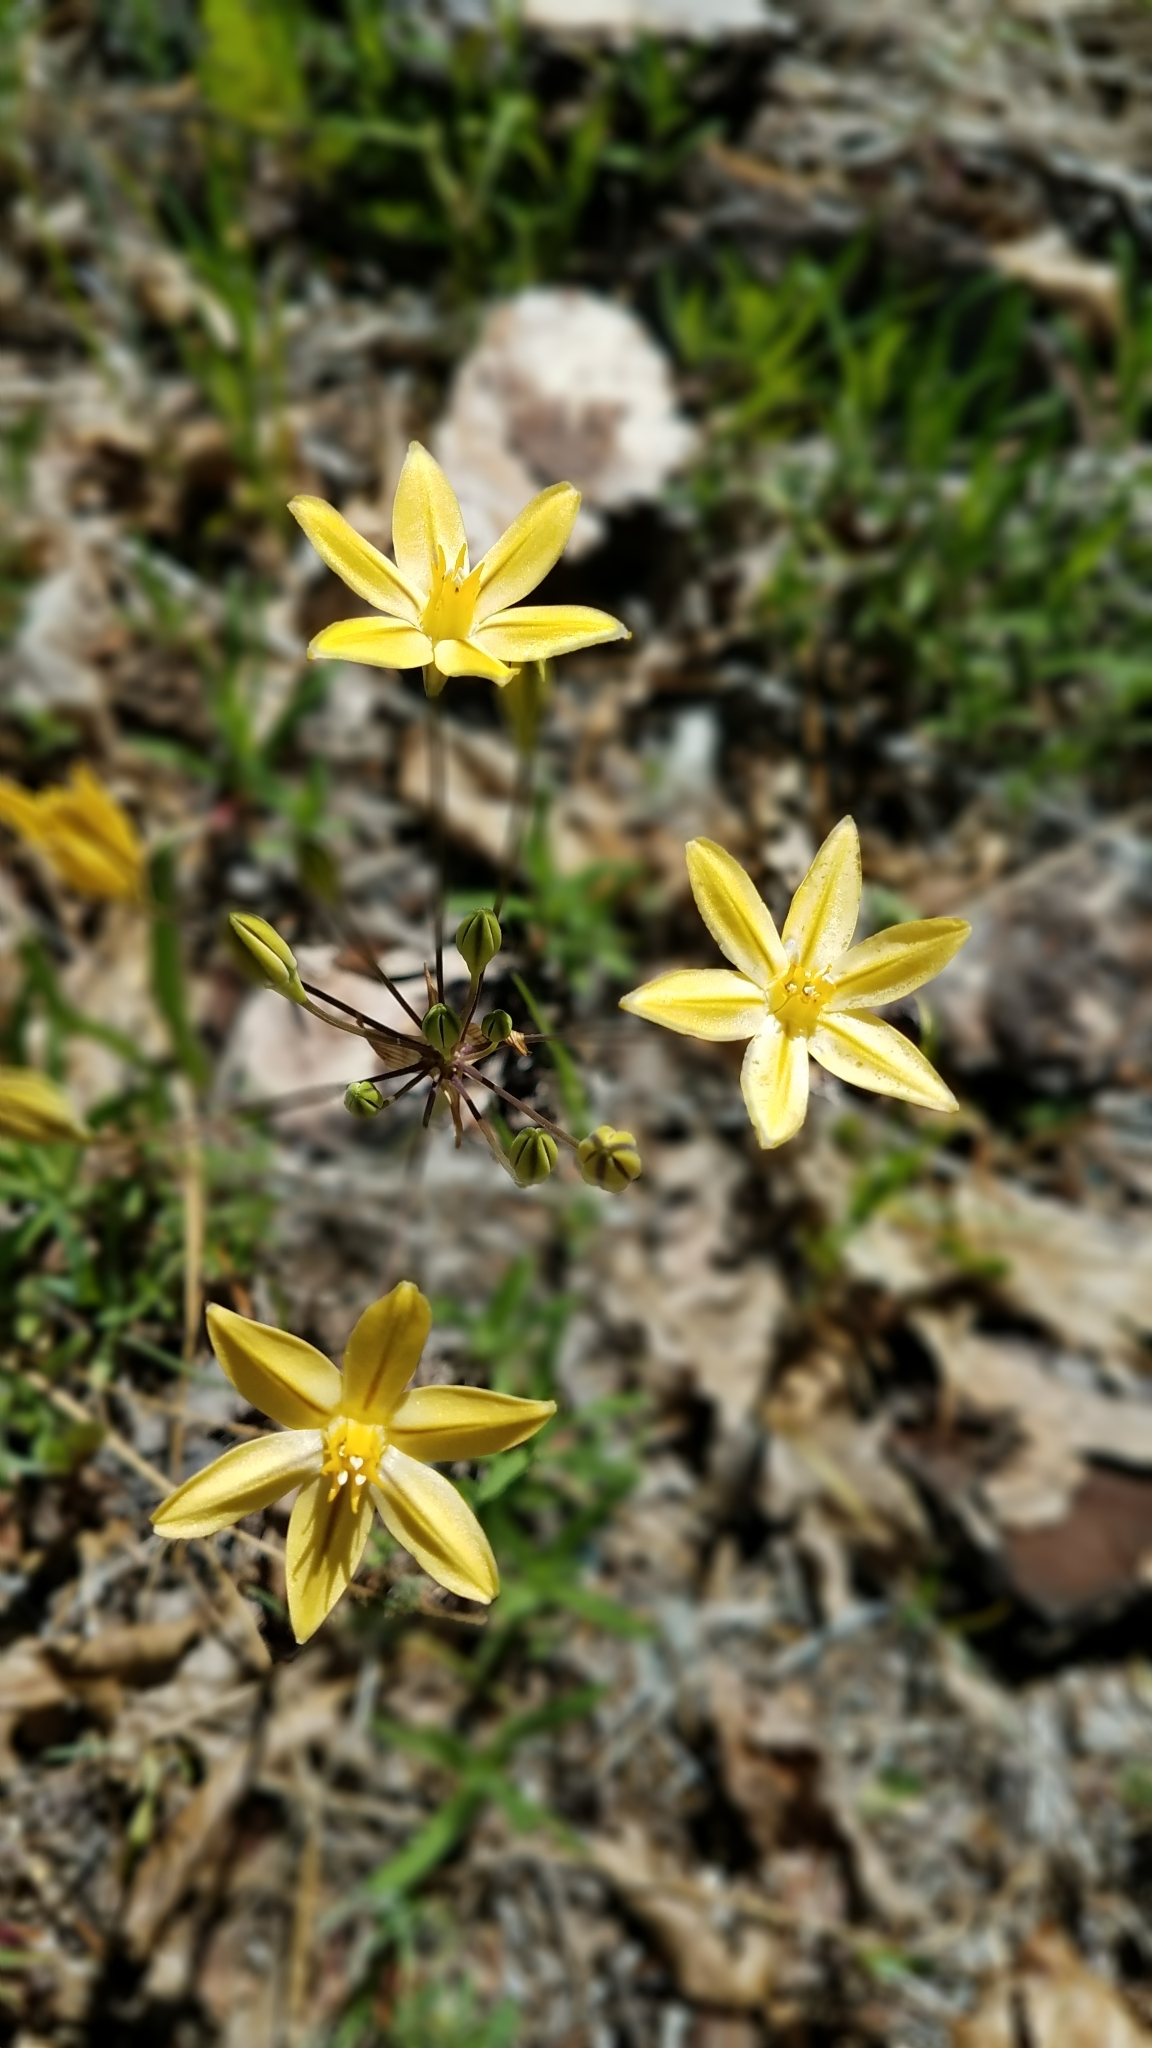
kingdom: Plantae
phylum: Tracheophyta
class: Liliopsida
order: Asparagales
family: Asparagaceae
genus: Triteleia
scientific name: Triteleia ixioides
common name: Yellow-brodiaea
